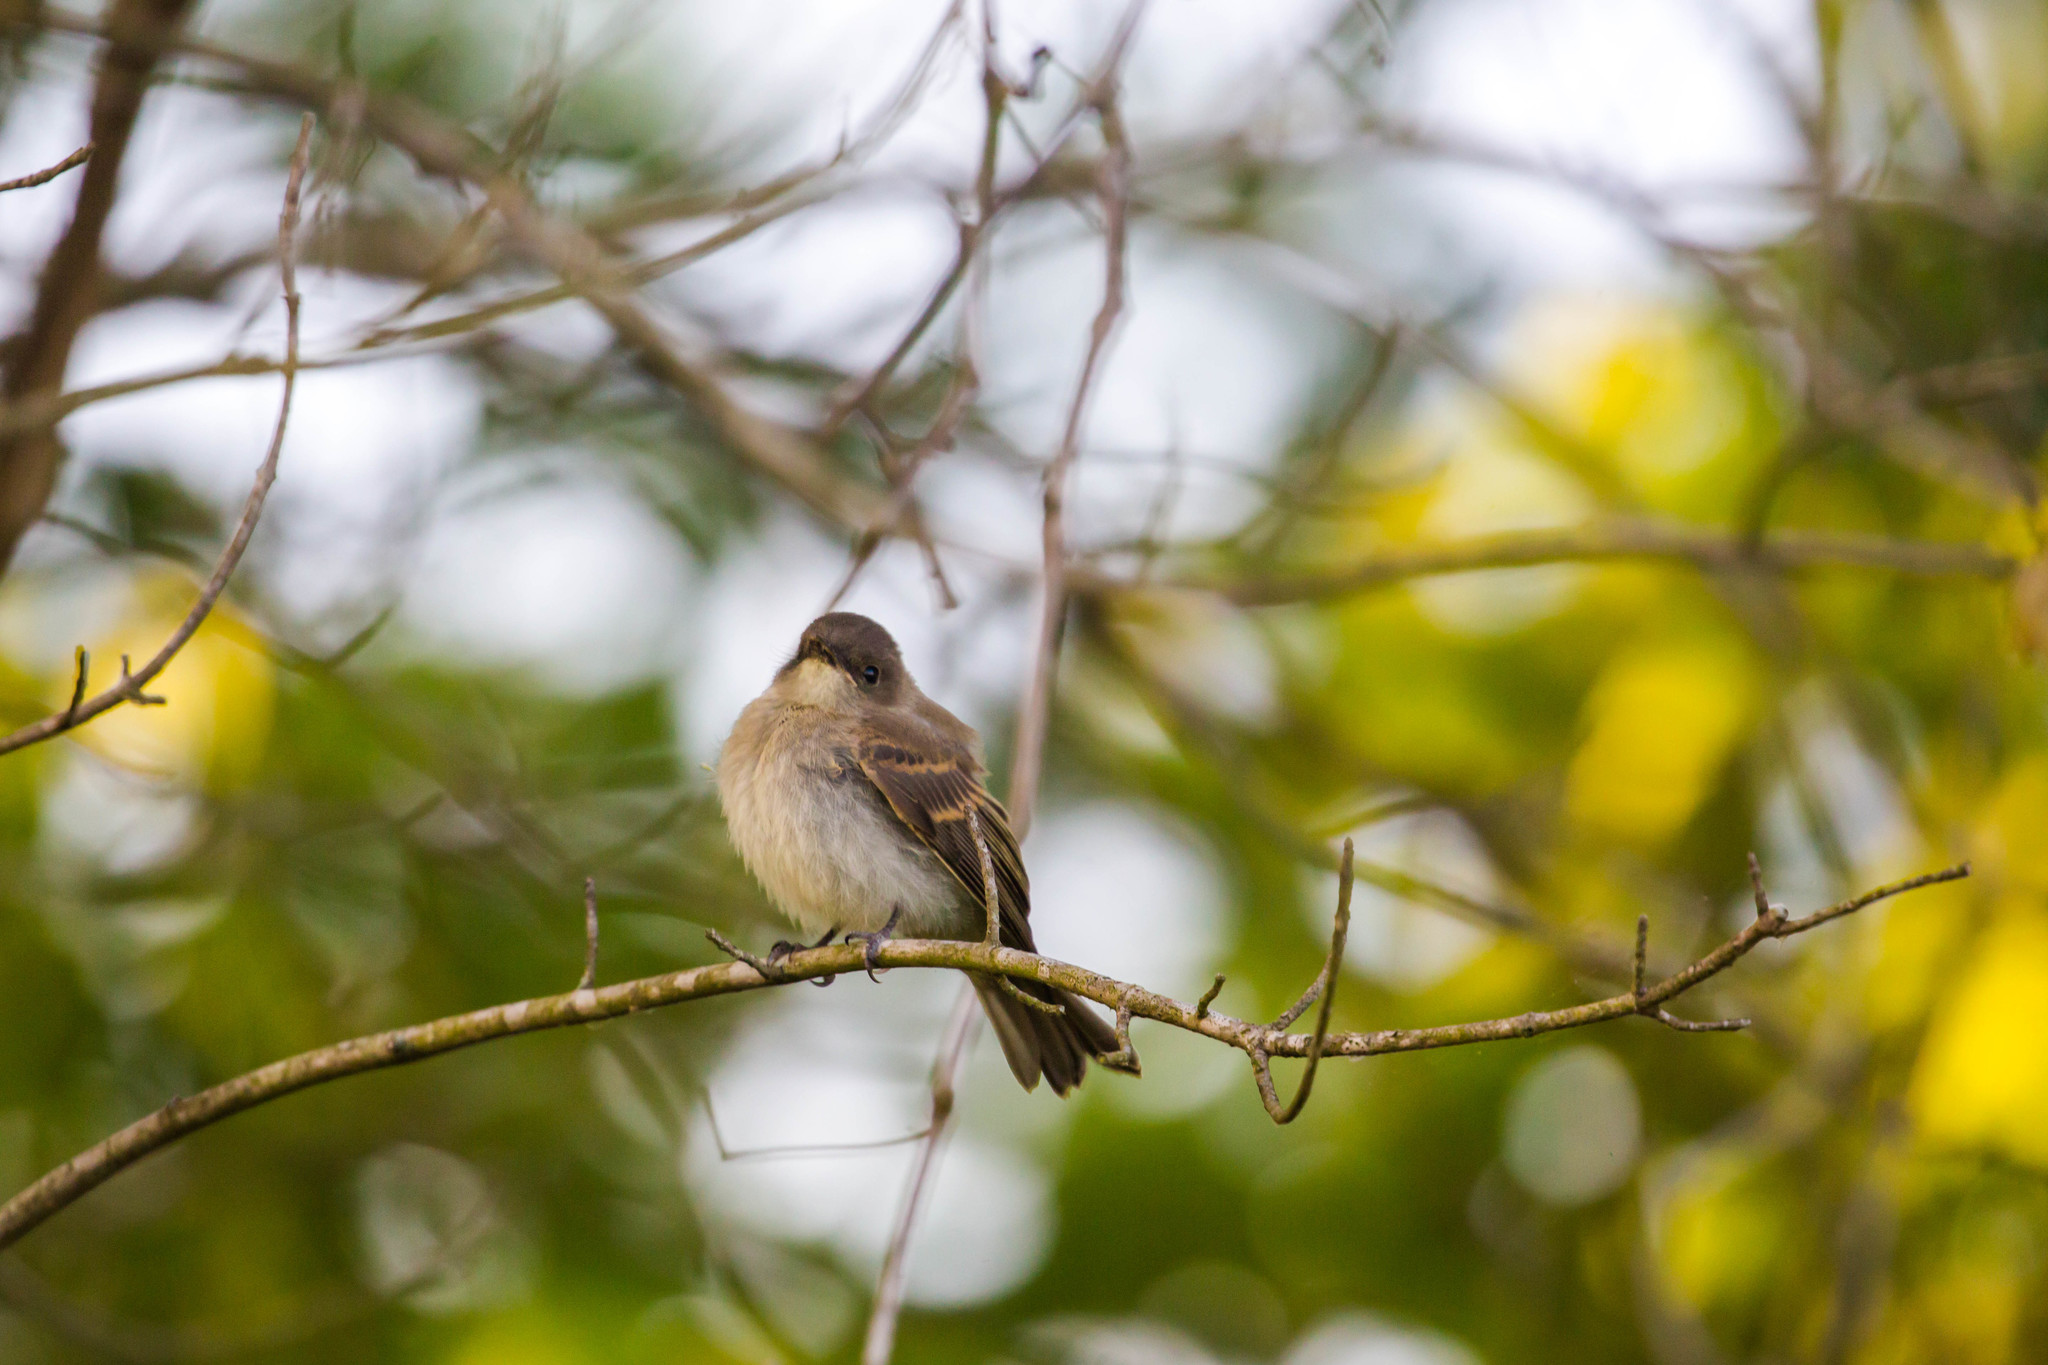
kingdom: Animalia
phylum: Chordata
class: Aves
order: Passeriformes
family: Tyrannidae
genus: Sayornis
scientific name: Sayornis phoebe
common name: Eastern phoebe
